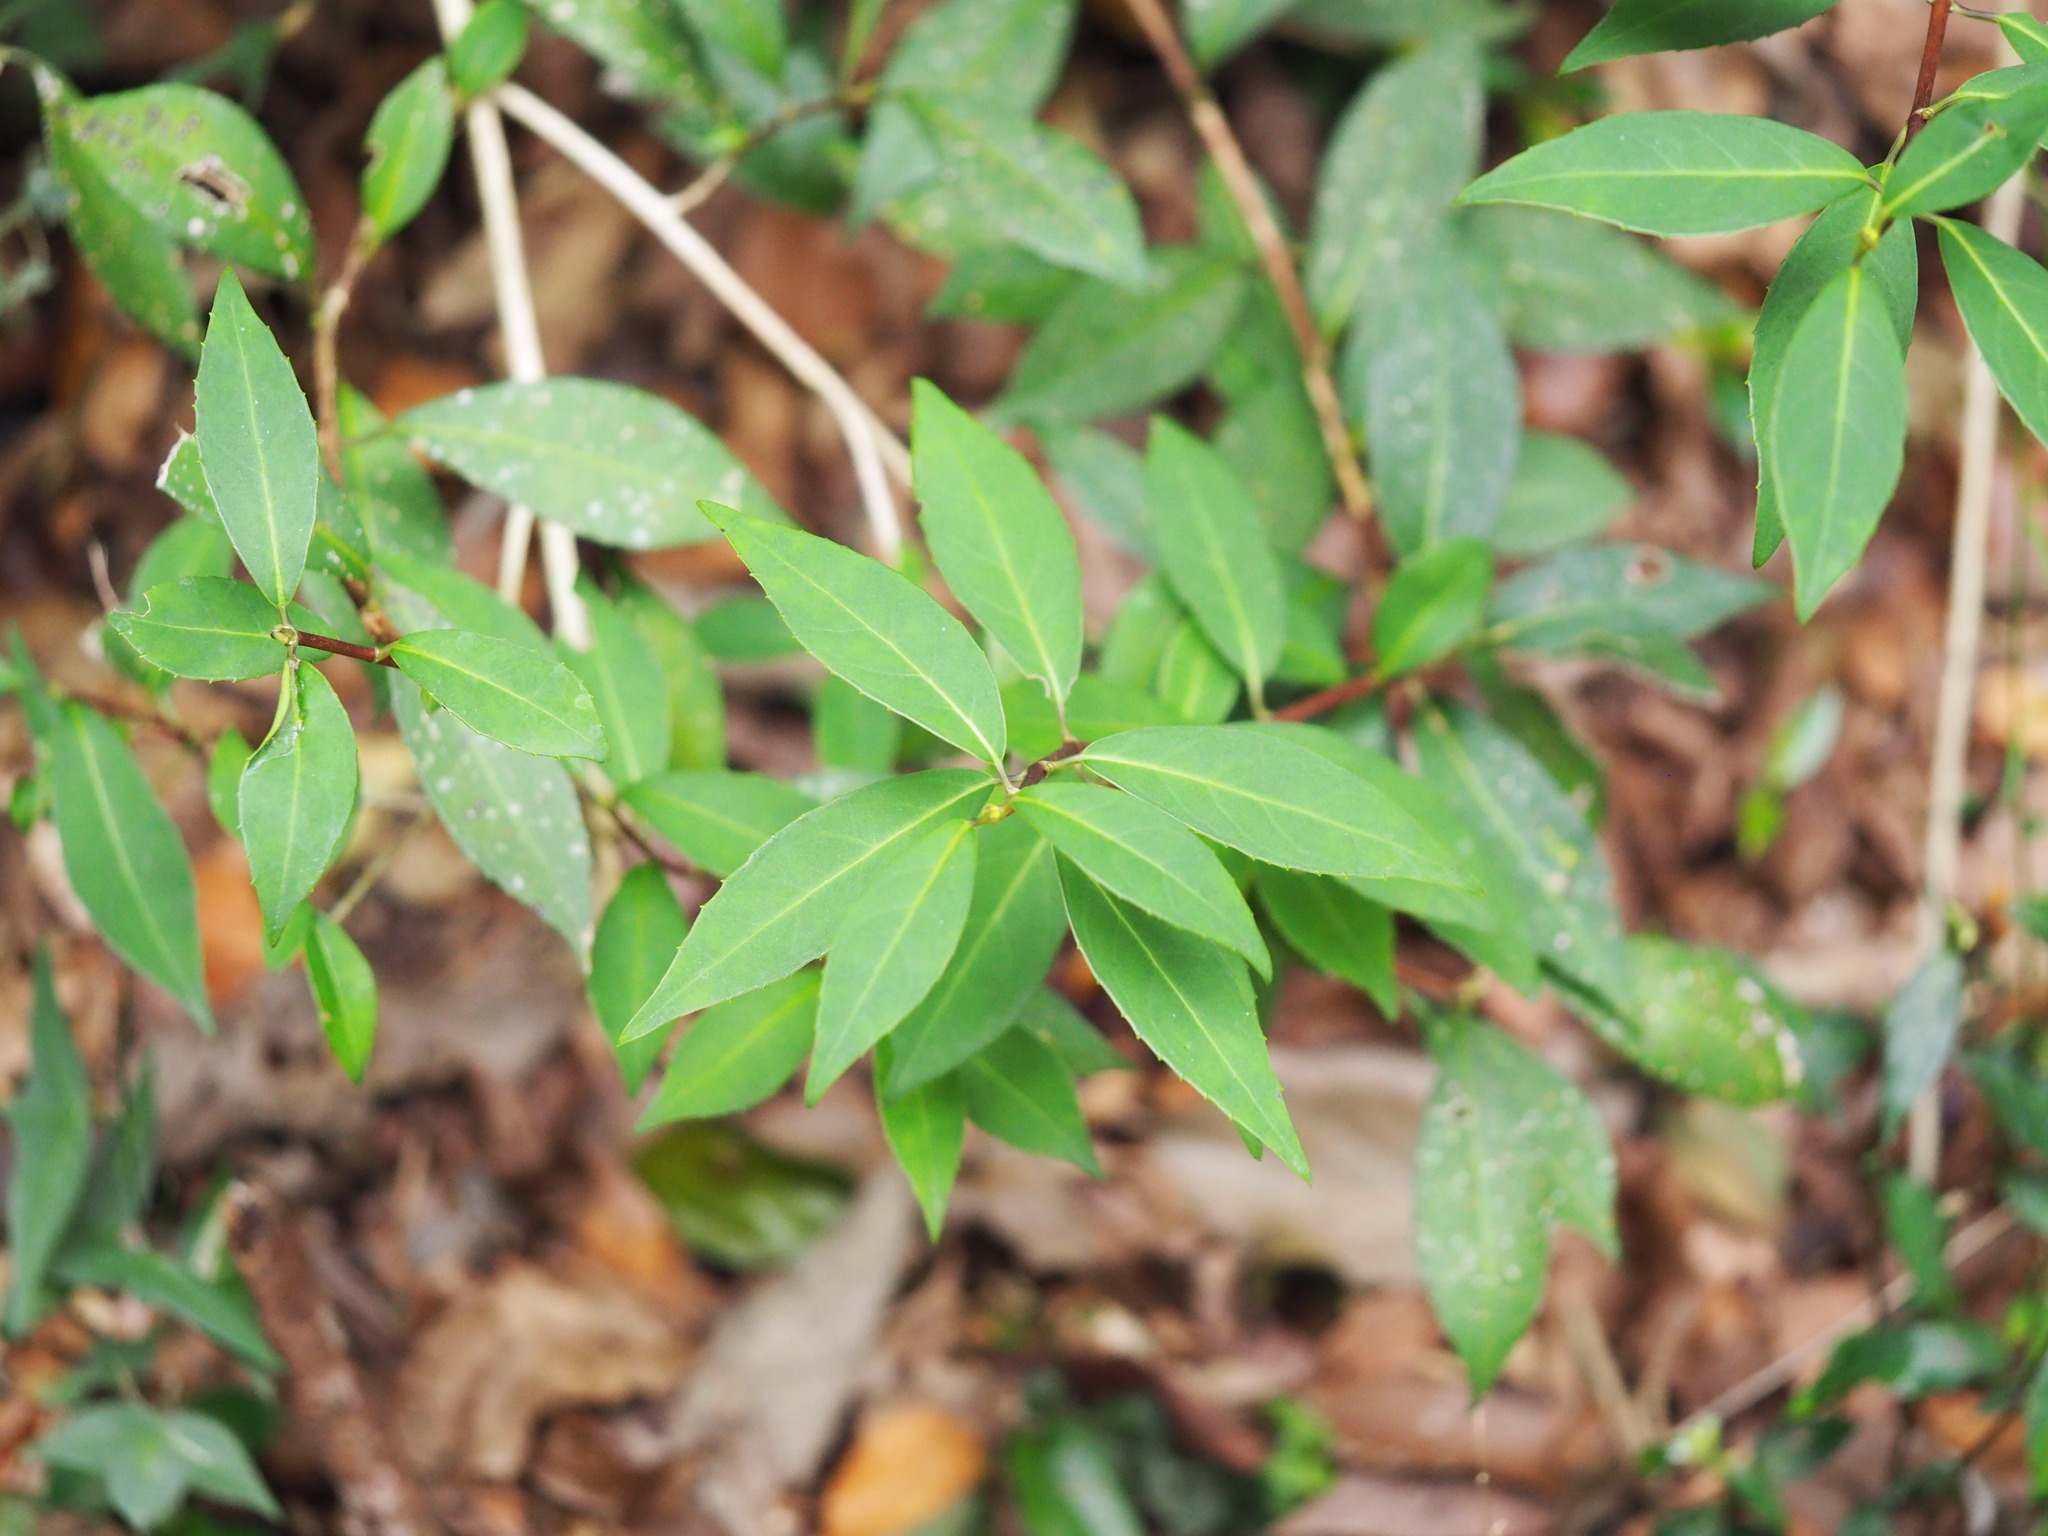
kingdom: Plantae
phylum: Tracheophyta
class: Magnoliopsida
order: Cornales
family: Hydrangeaceae
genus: Hydrangea
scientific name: Hydrangea chinensis
